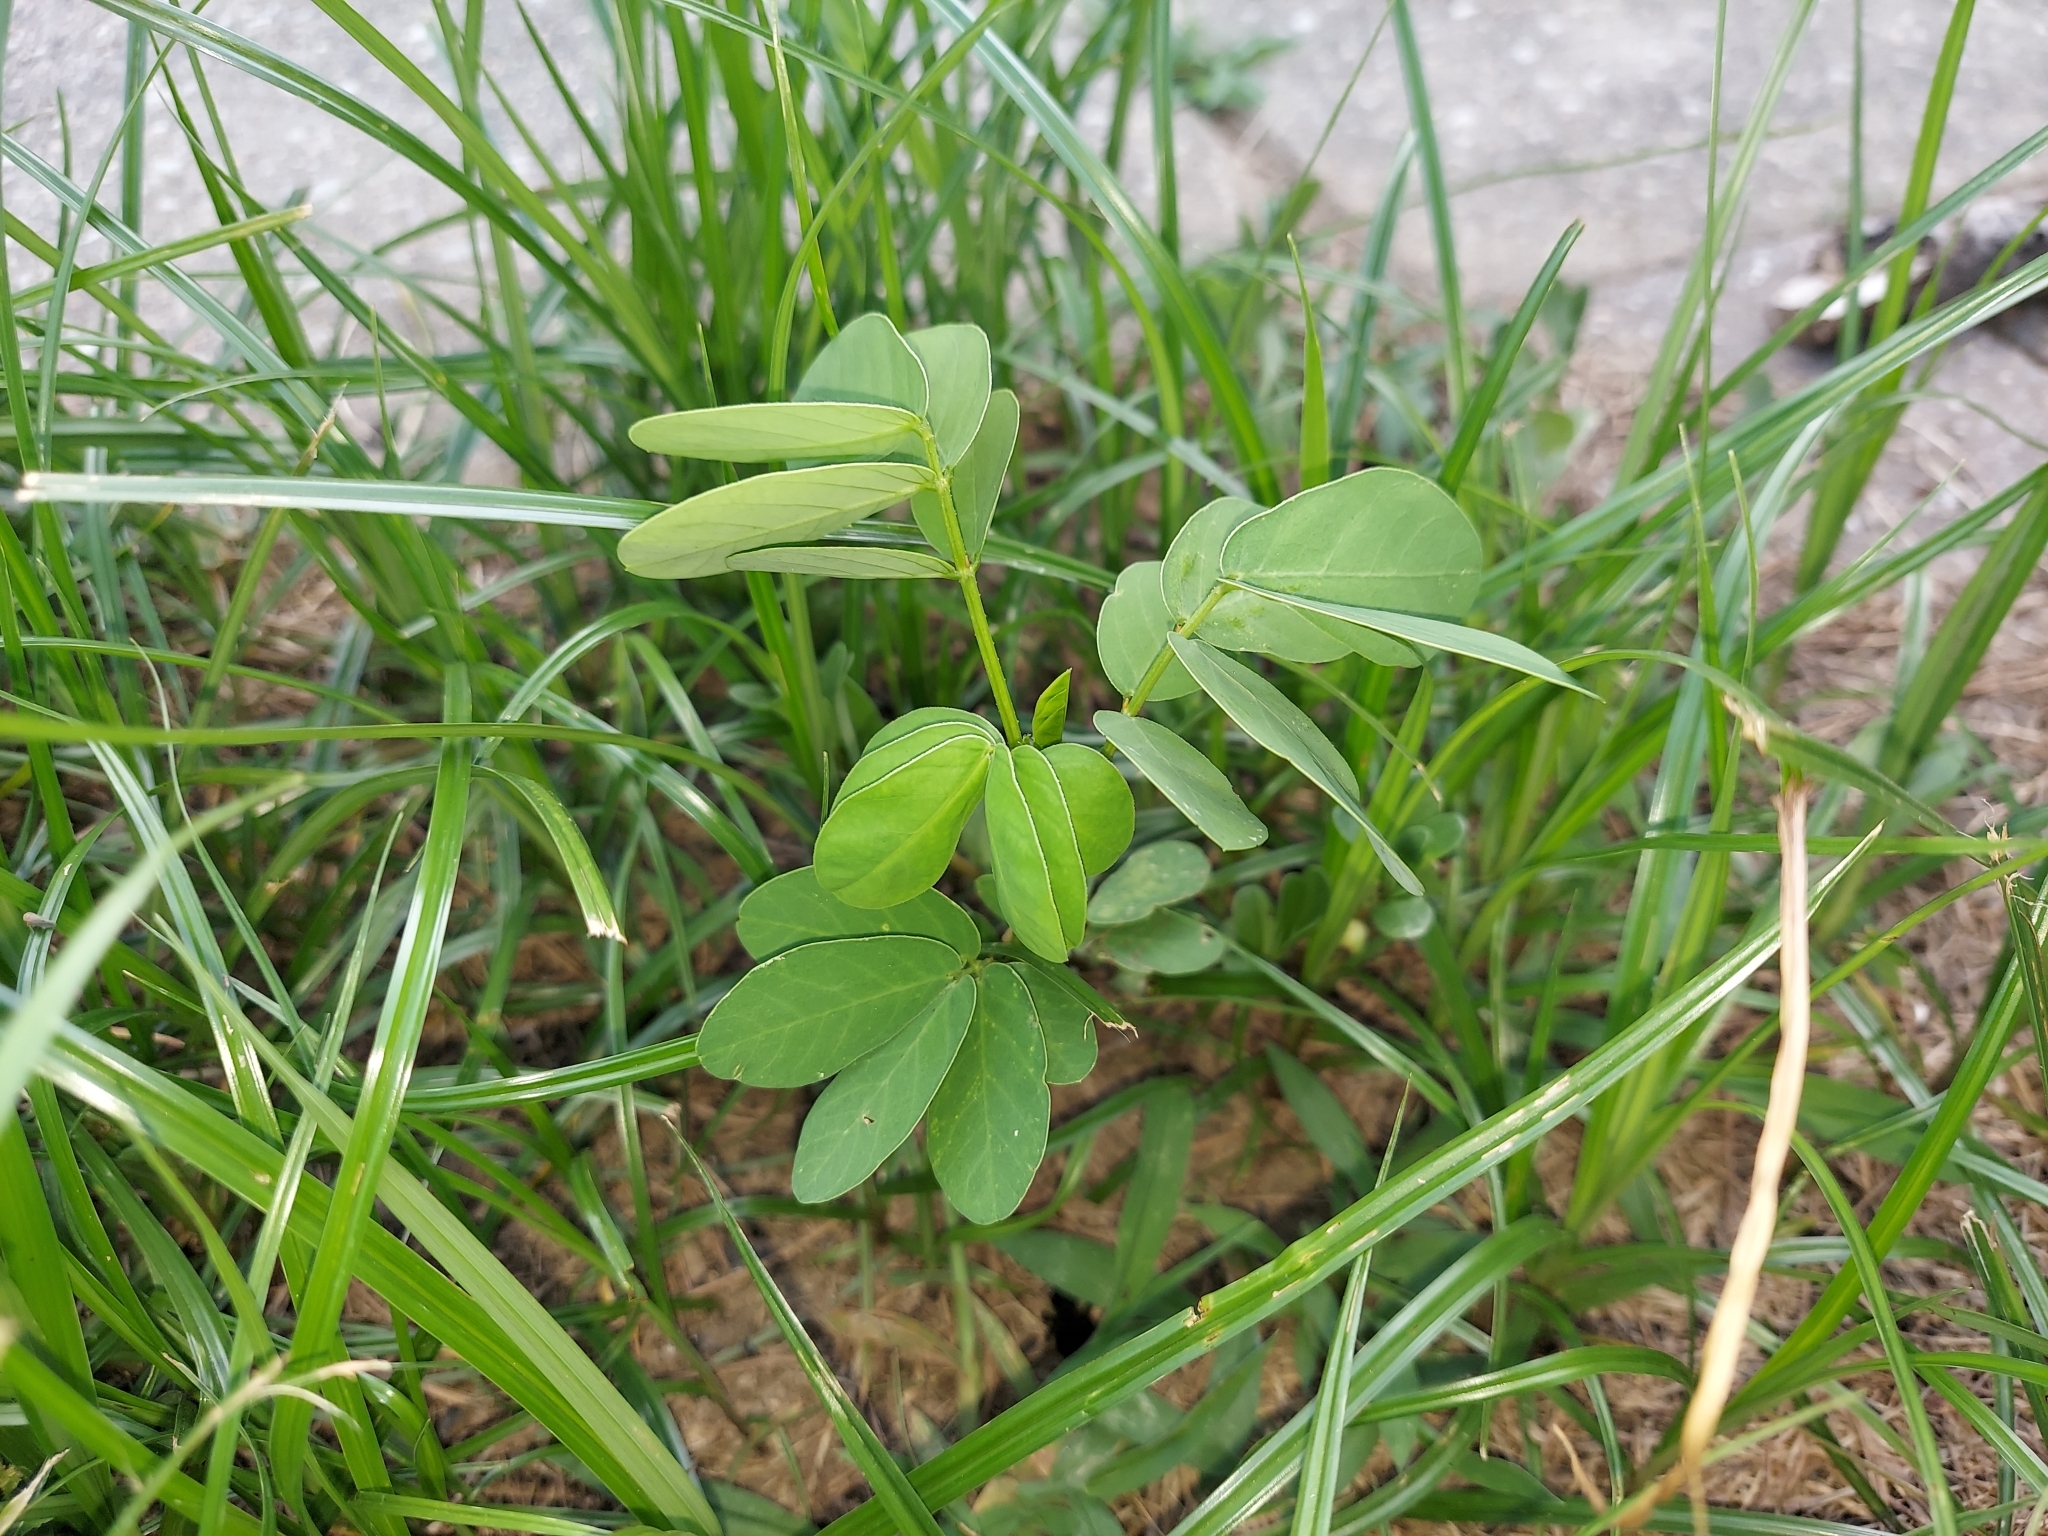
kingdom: Plantae
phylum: Tracheophyta
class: Magnoliopsida
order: Fabales
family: Fabaceae
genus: Senna
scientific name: Senna obtusifolia
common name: Java-bean
